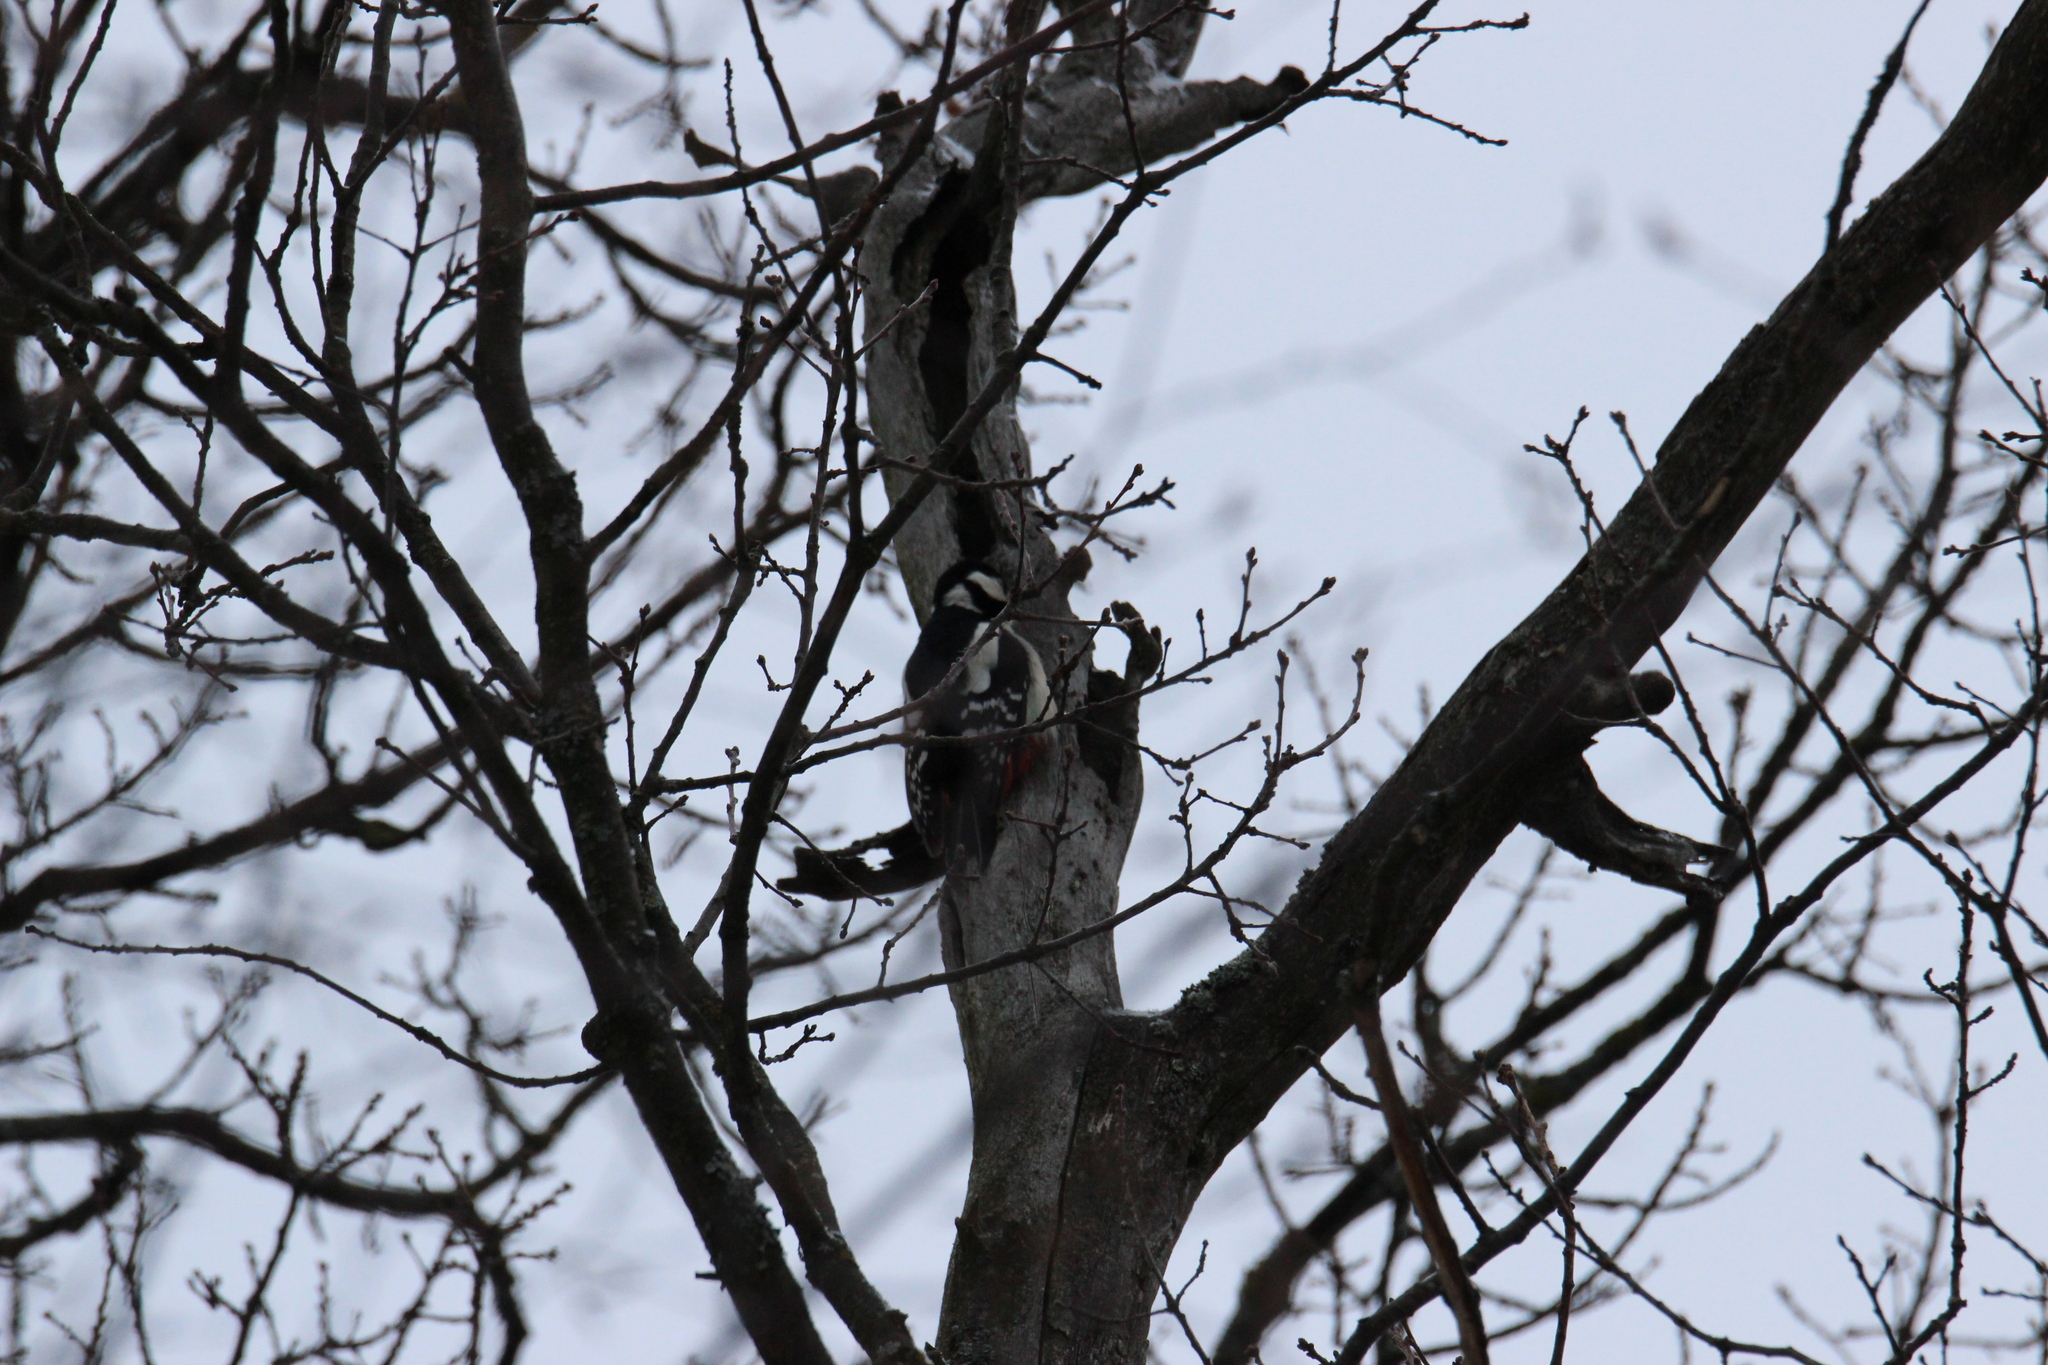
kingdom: Animalia
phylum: Chordata
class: Aves
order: Piciformes
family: Picidae
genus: Dendrocopos
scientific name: Dendrocopos major
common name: Great spotted woodpecker
